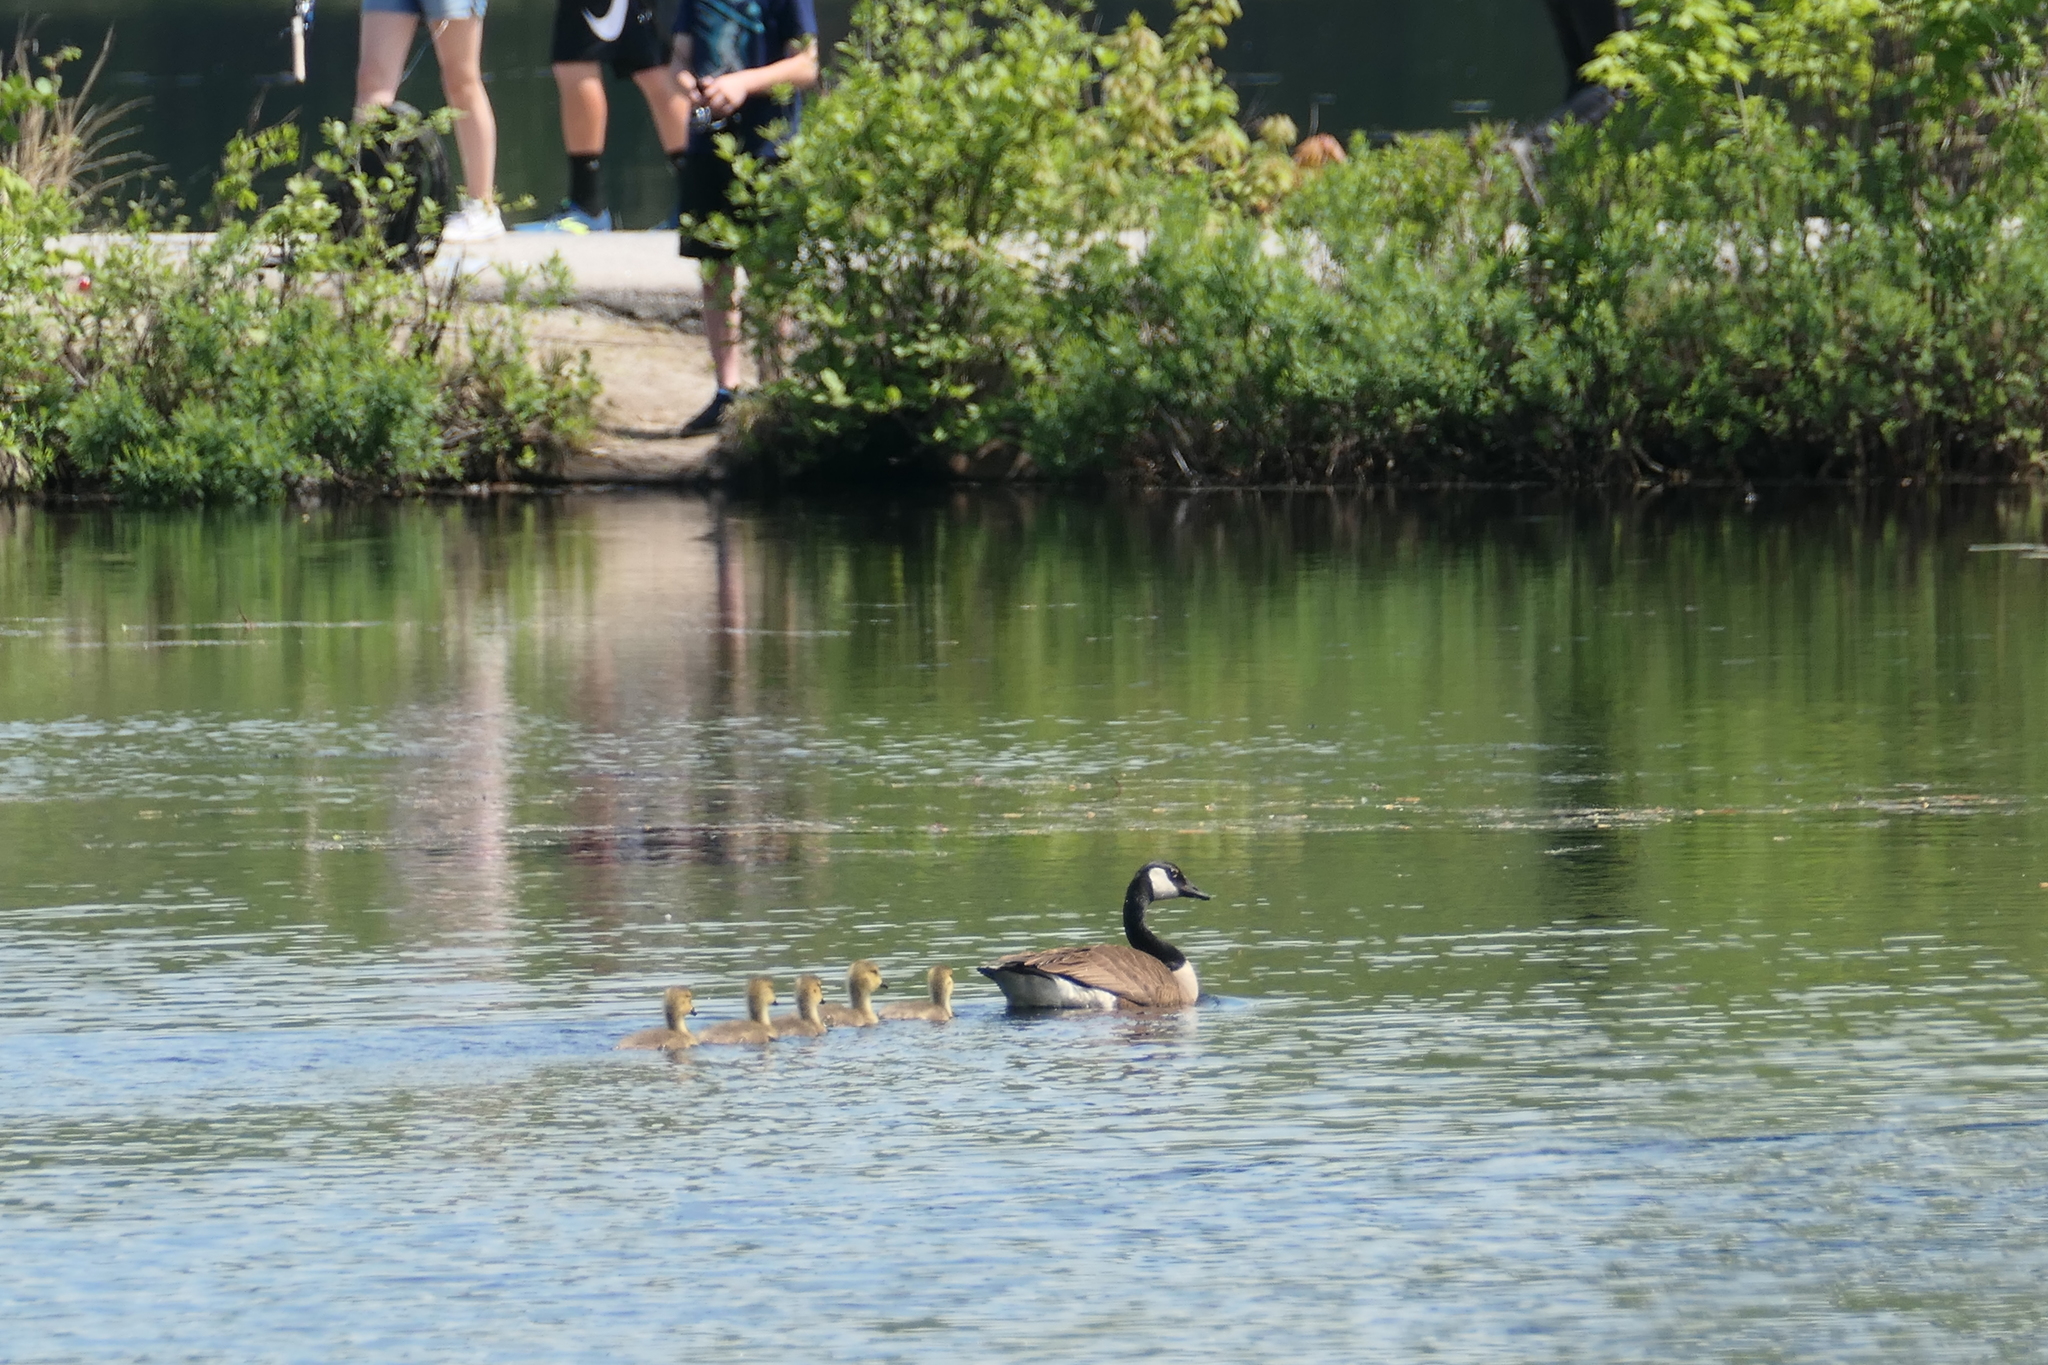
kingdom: Animalia
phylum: Chordata
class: Aves
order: Anseriformes
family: Anatidae
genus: Branta
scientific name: Branta canadensis
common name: Canada goose
